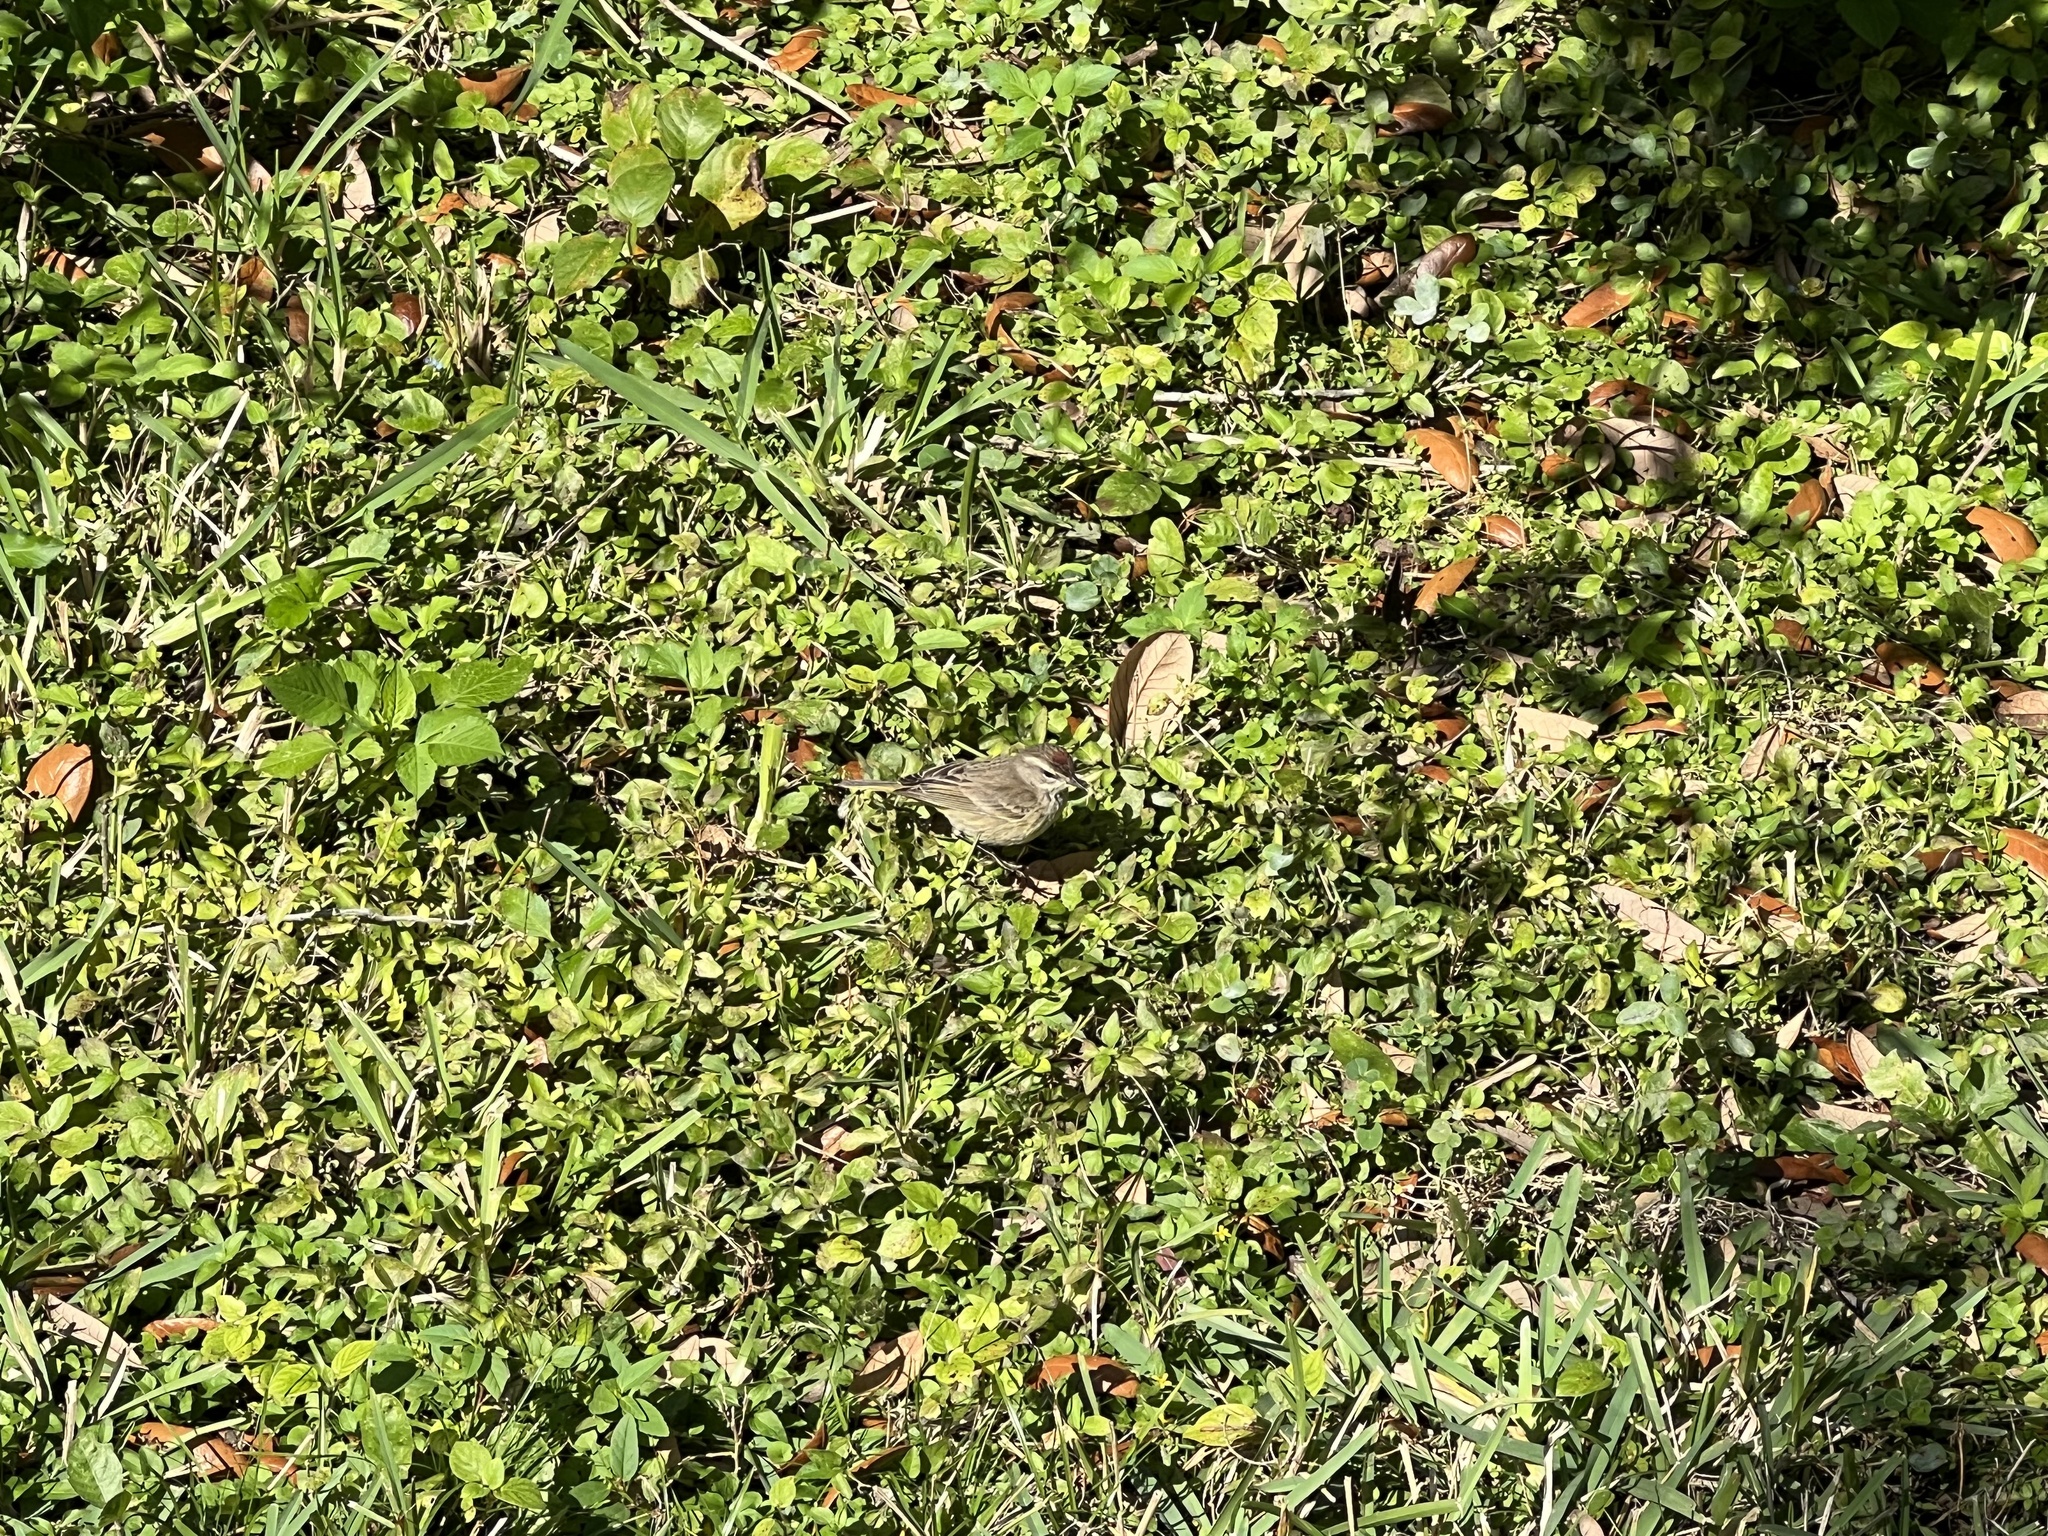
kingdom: Animalia
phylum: Chordata
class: Aves
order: Passeriformes
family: Parulidae
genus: Setophaga
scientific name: Setophaga palmarum
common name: Palm warbler
